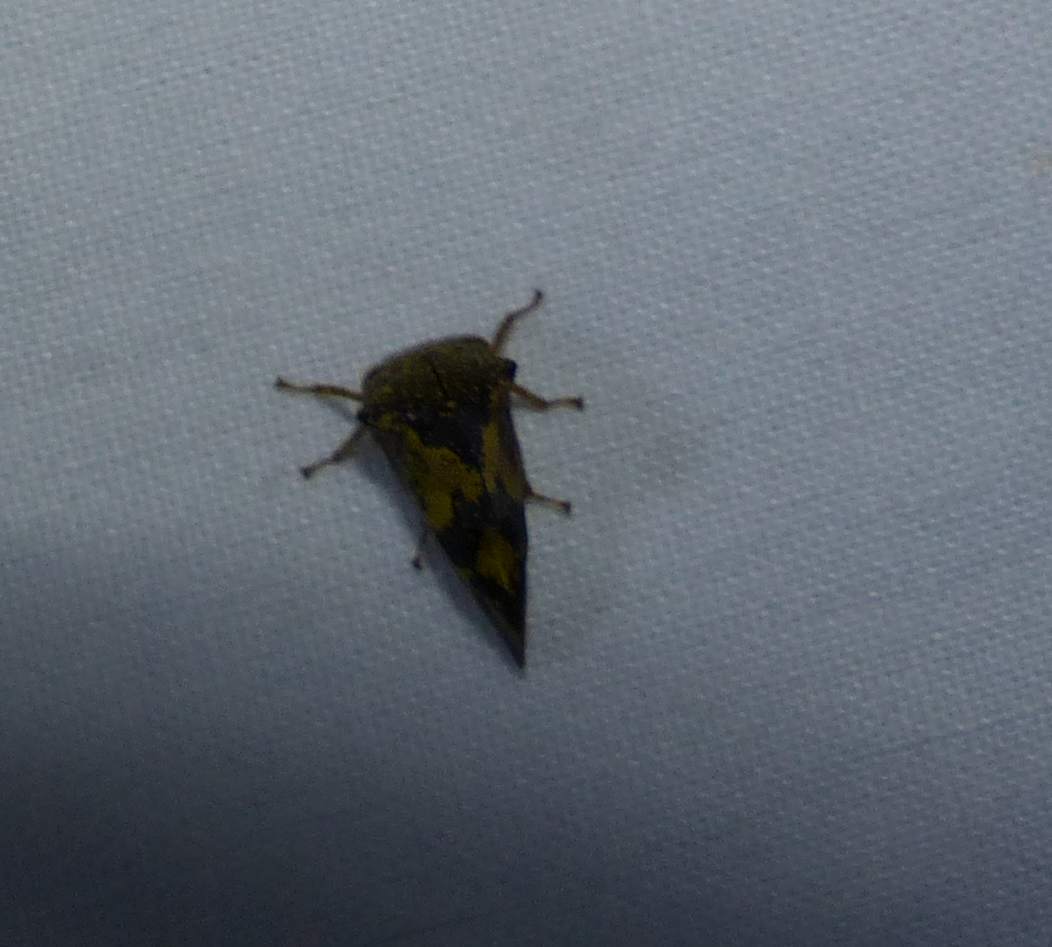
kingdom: Animalia
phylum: Arthropoda
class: Insecta
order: Hemiptera
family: Membracidae
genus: Telamona
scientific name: Telamona tristis
